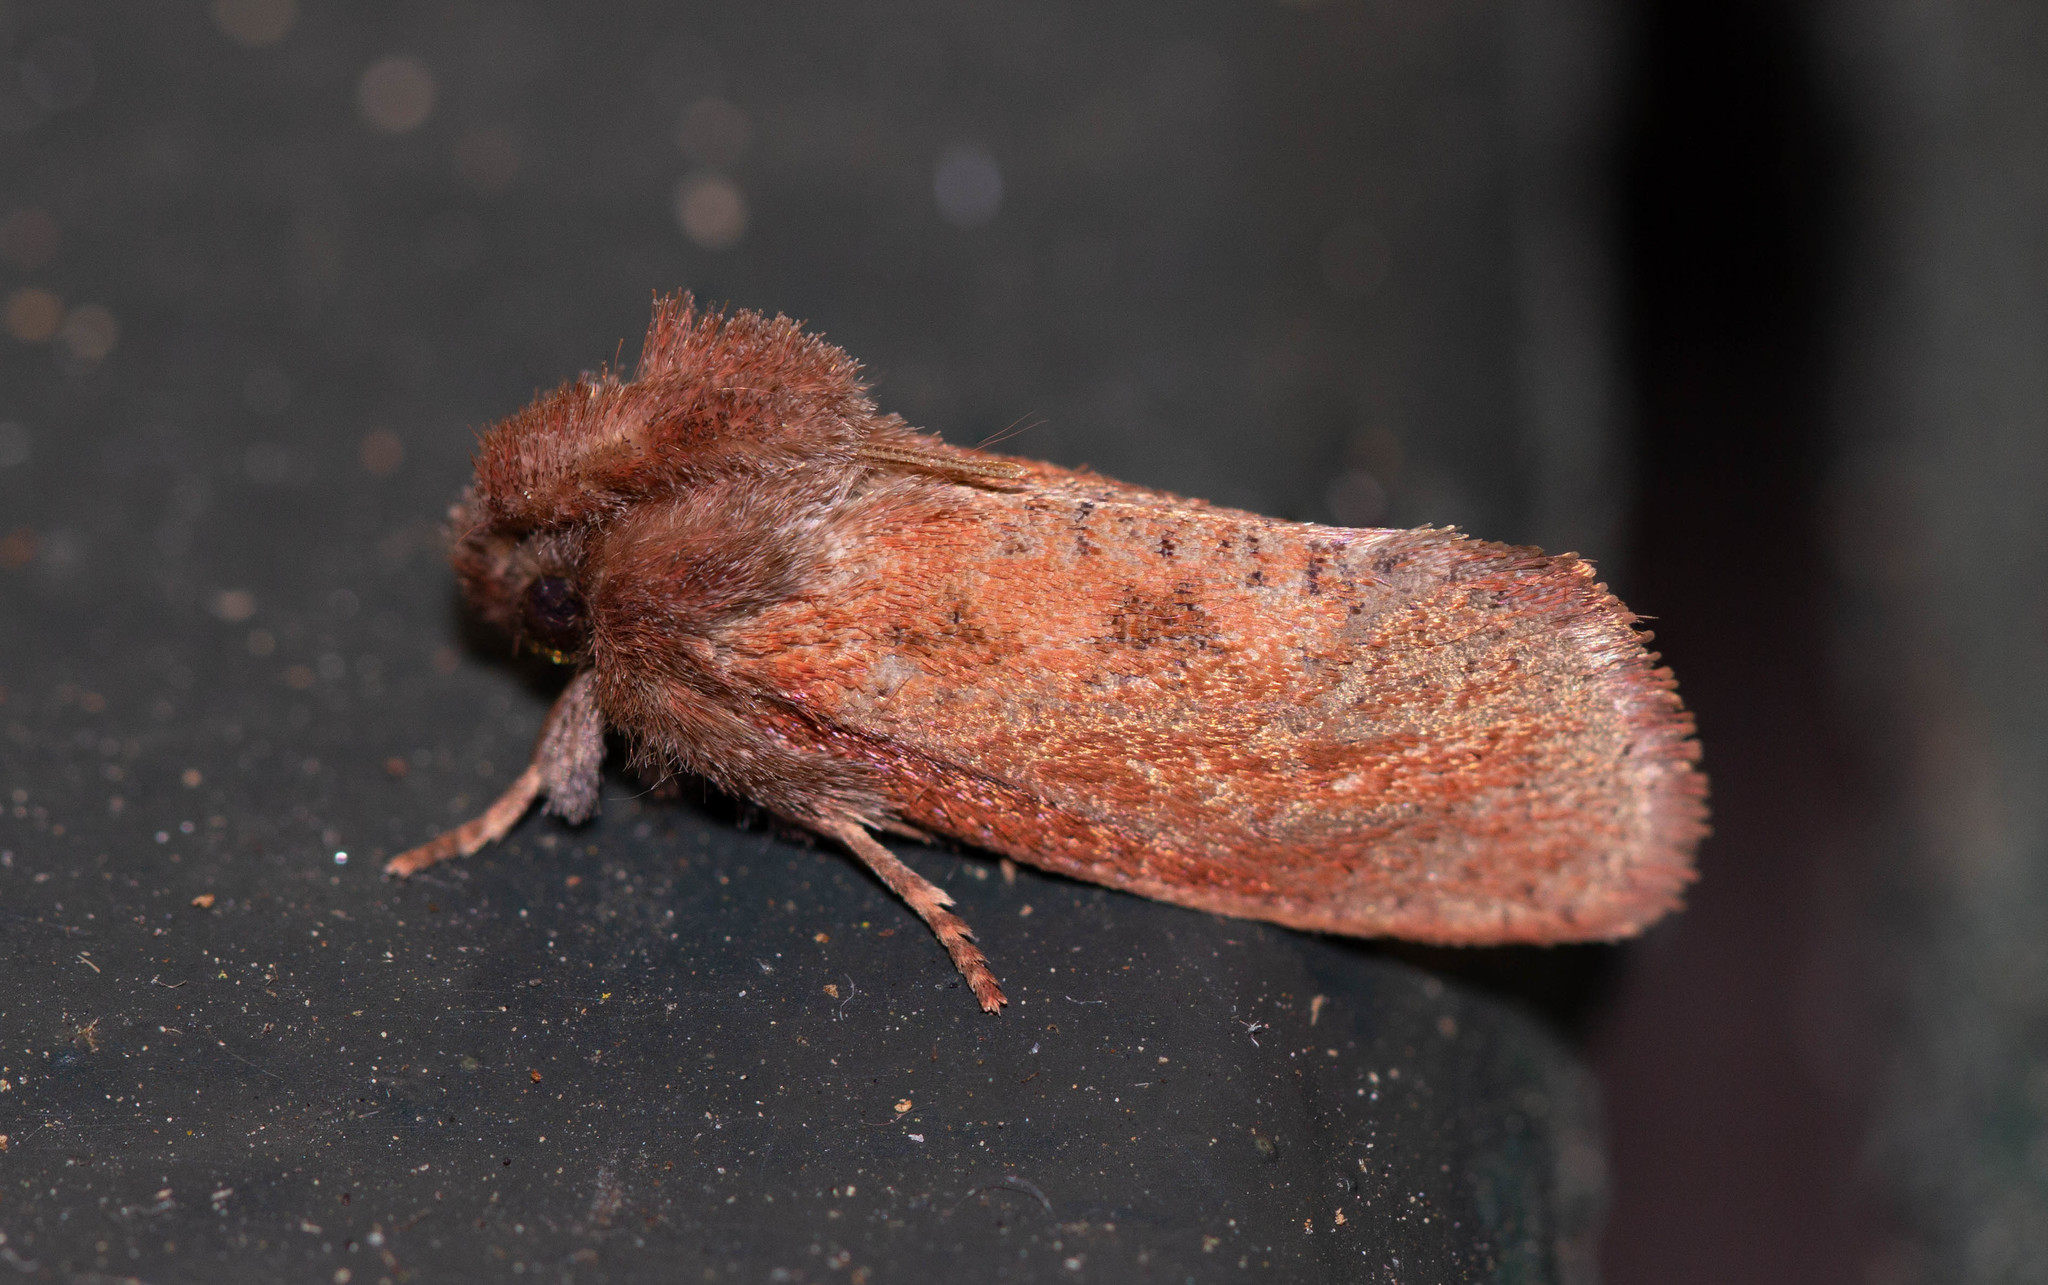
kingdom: Animalia
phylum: Arthropoda
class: Insecta
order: Lepidoptera
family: Tineidae
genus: Acrolophus
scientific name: Acrolophus plumifrontella
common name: Eastern grass tubeworm moth
